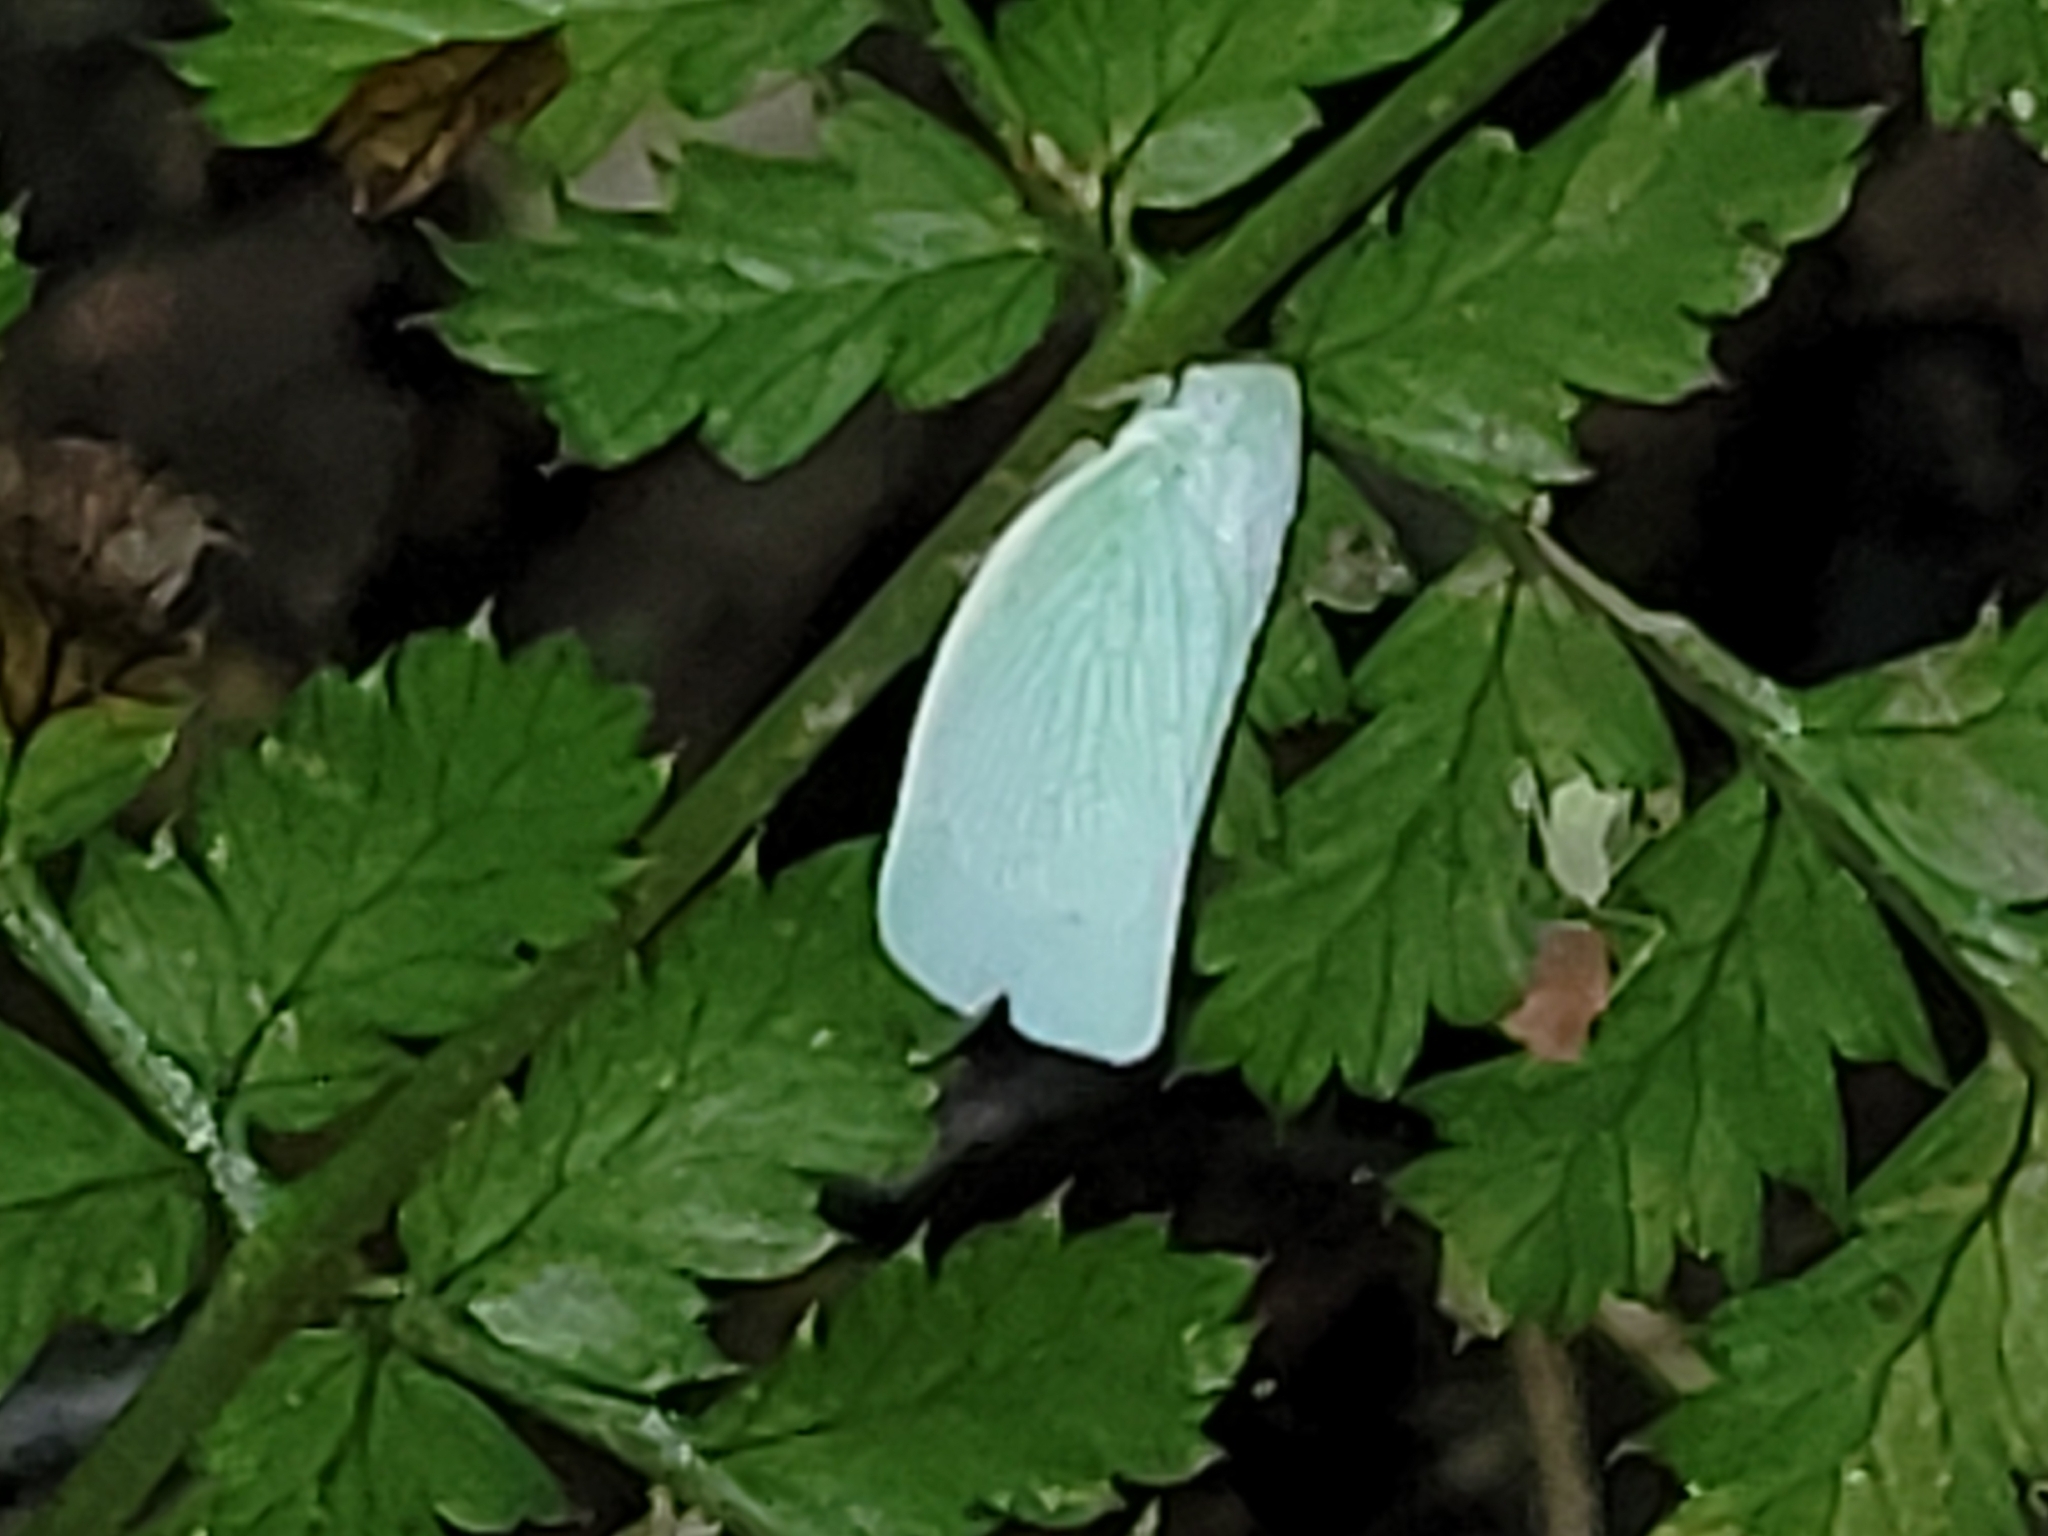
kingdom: Animalia
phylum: Arthropoda
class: Insecta
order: Hemiptera
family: Flatidae
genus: Flatormenis
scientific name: Flatormenis proxima
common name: Northern flatid planthopper
